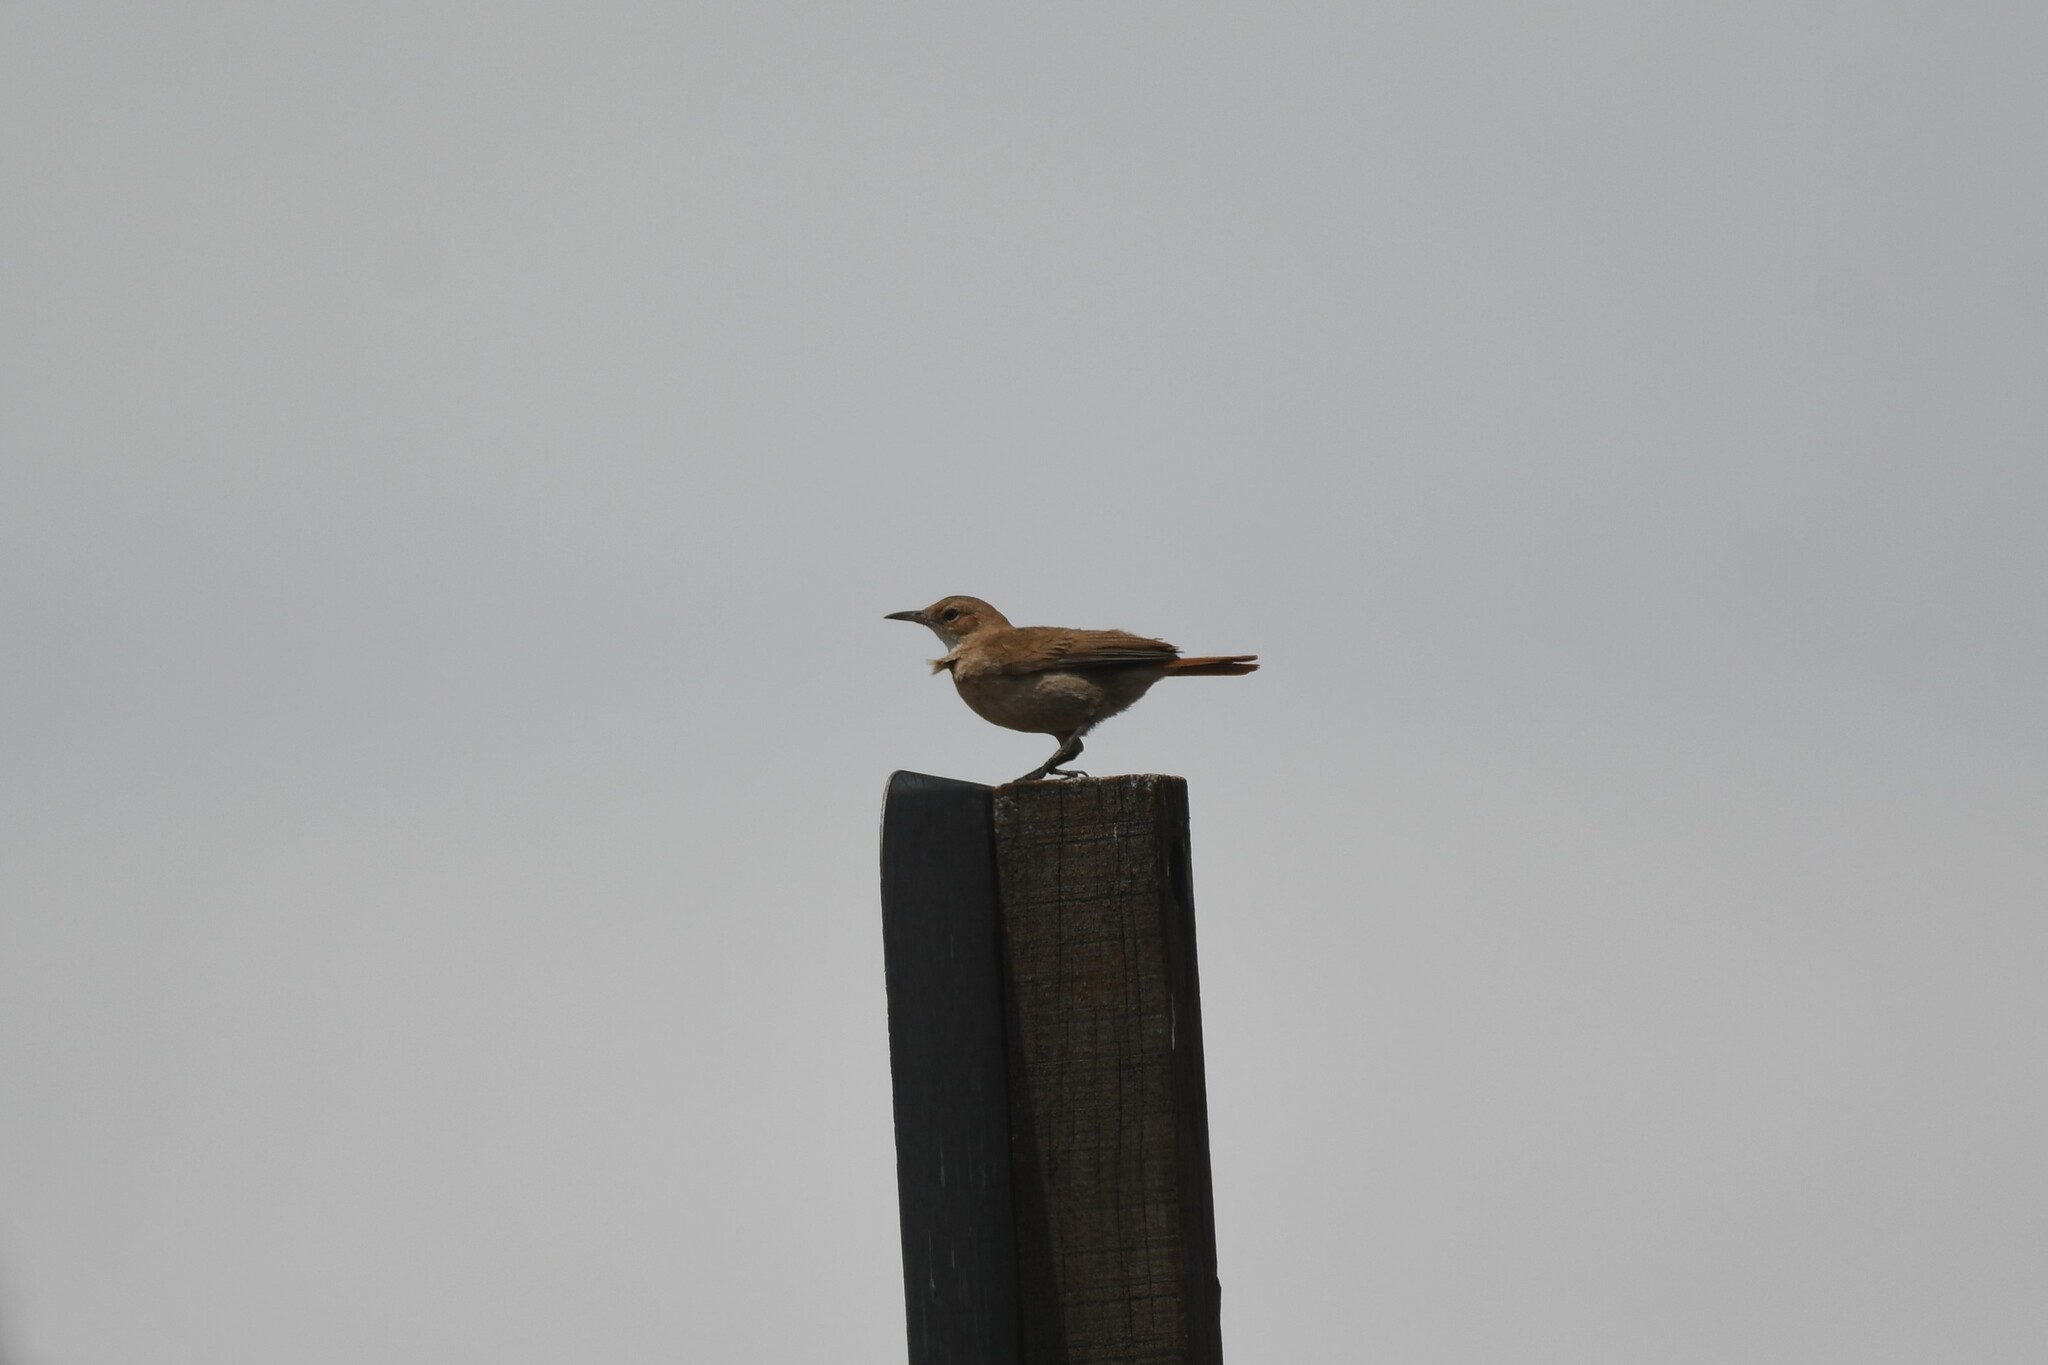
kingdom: Animalia
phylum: Chordata
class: Aves
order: Passeriformes
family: Furnariidae
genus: Furnarius
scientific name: Furnarius rufus
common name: Rufous hornero
